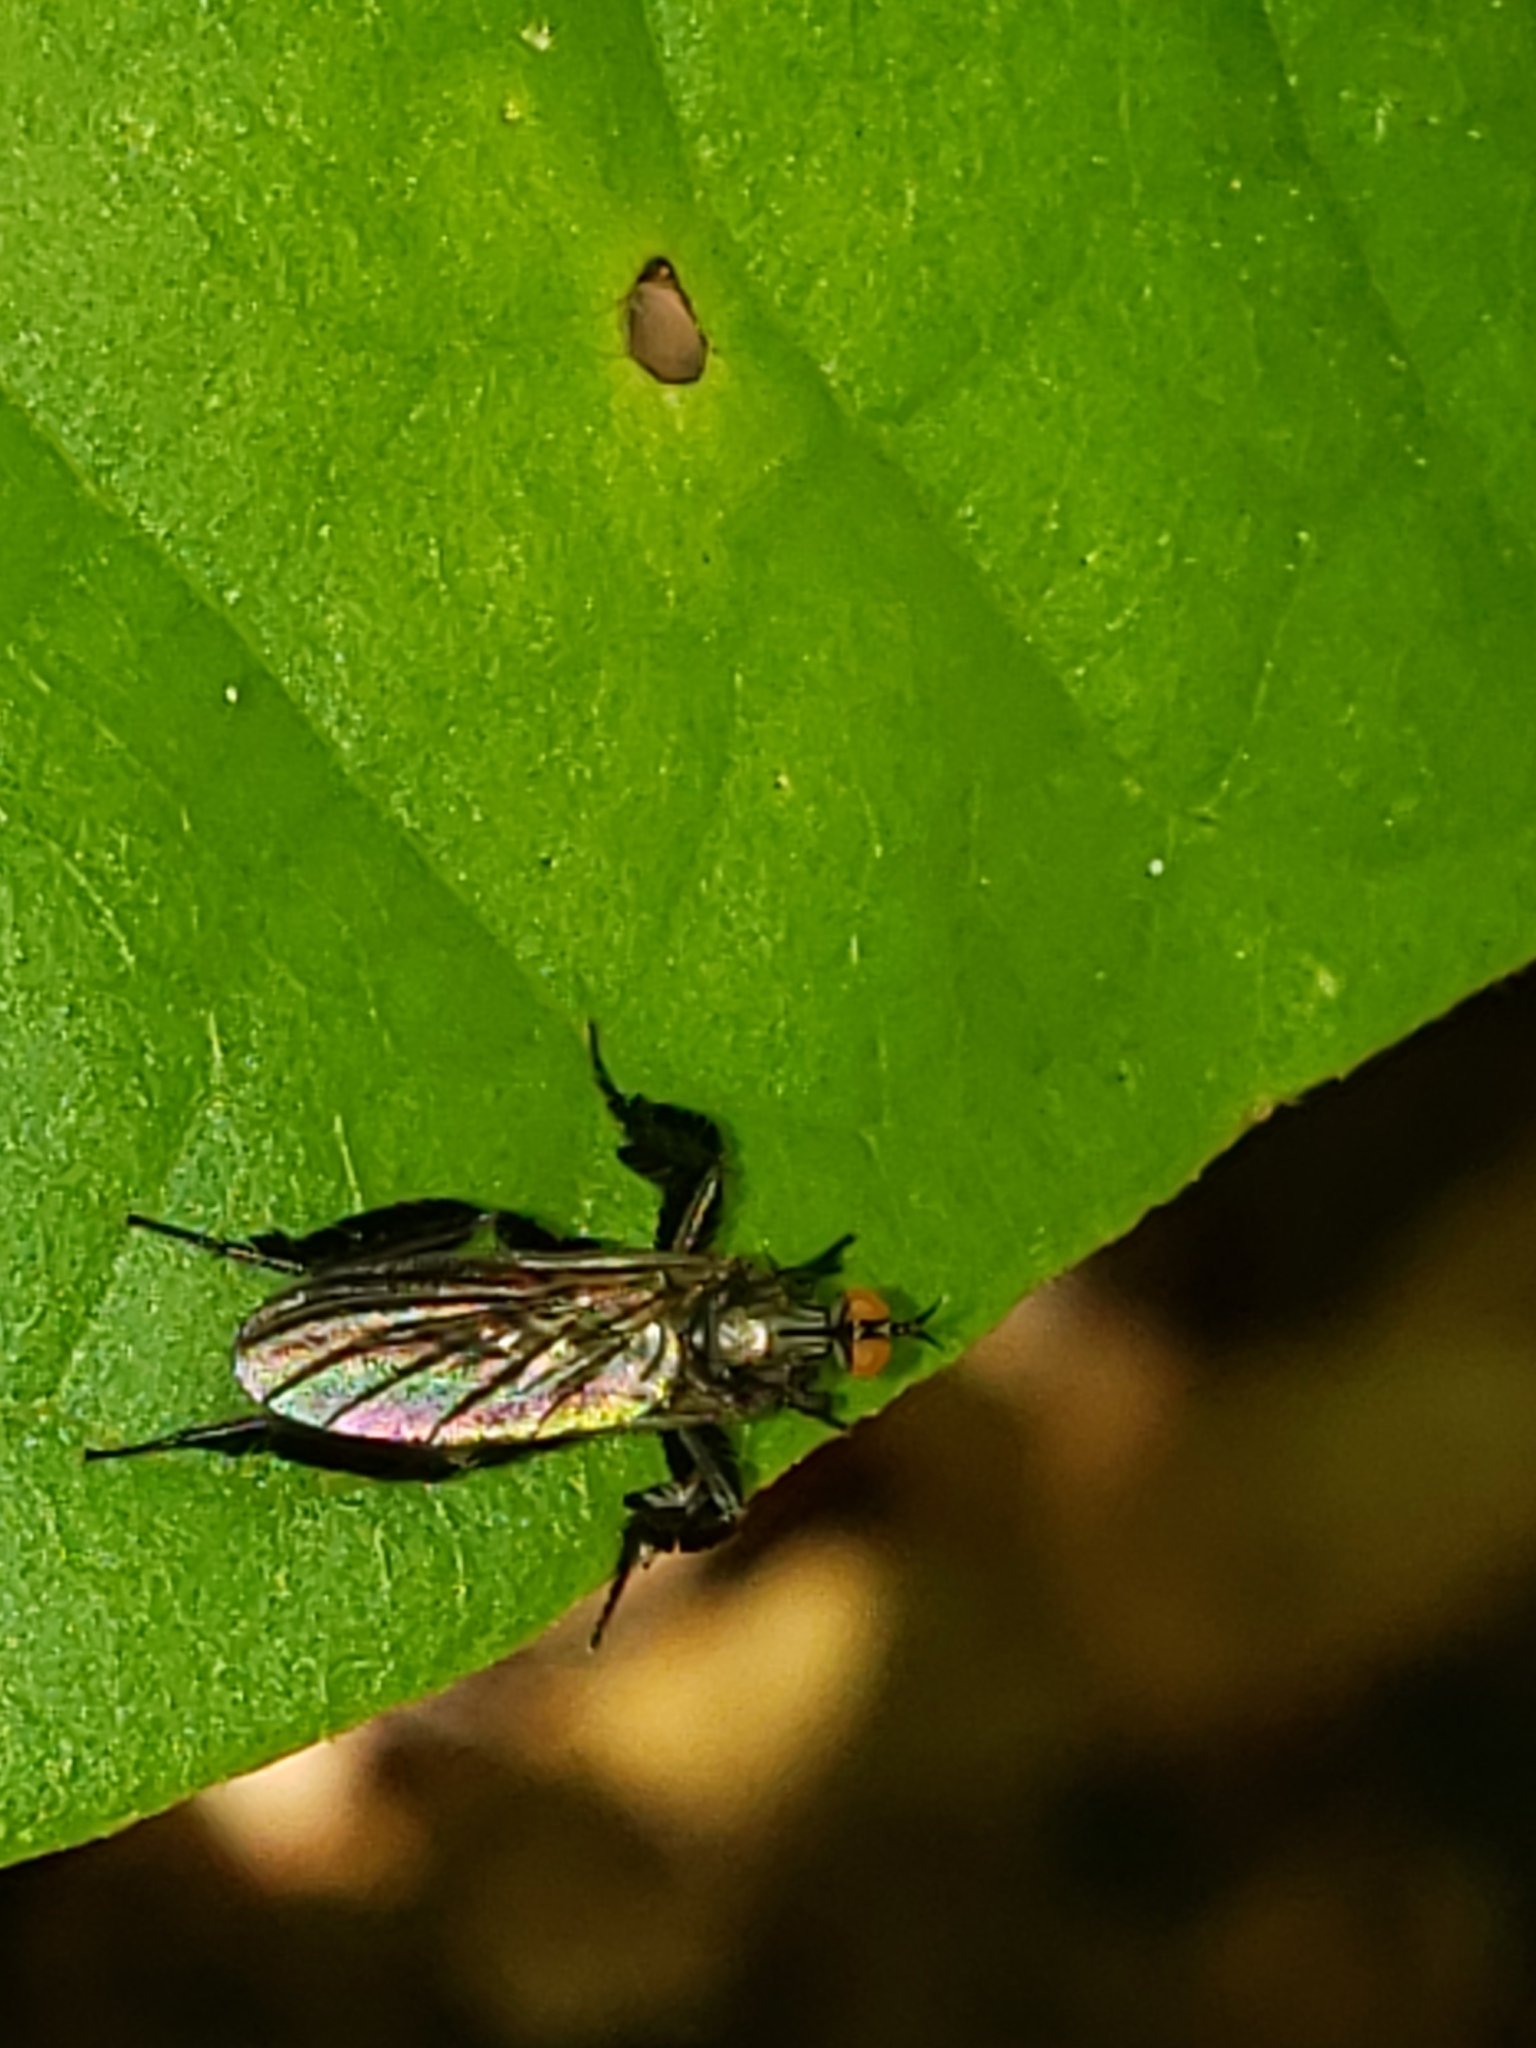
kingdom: Animalia
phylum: Arthropoda
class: Insecta
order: Diptera
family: Empididae
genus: Rhamphomyia
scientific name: Rhamphomyia longicauda
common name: Long-tailed dance fly
